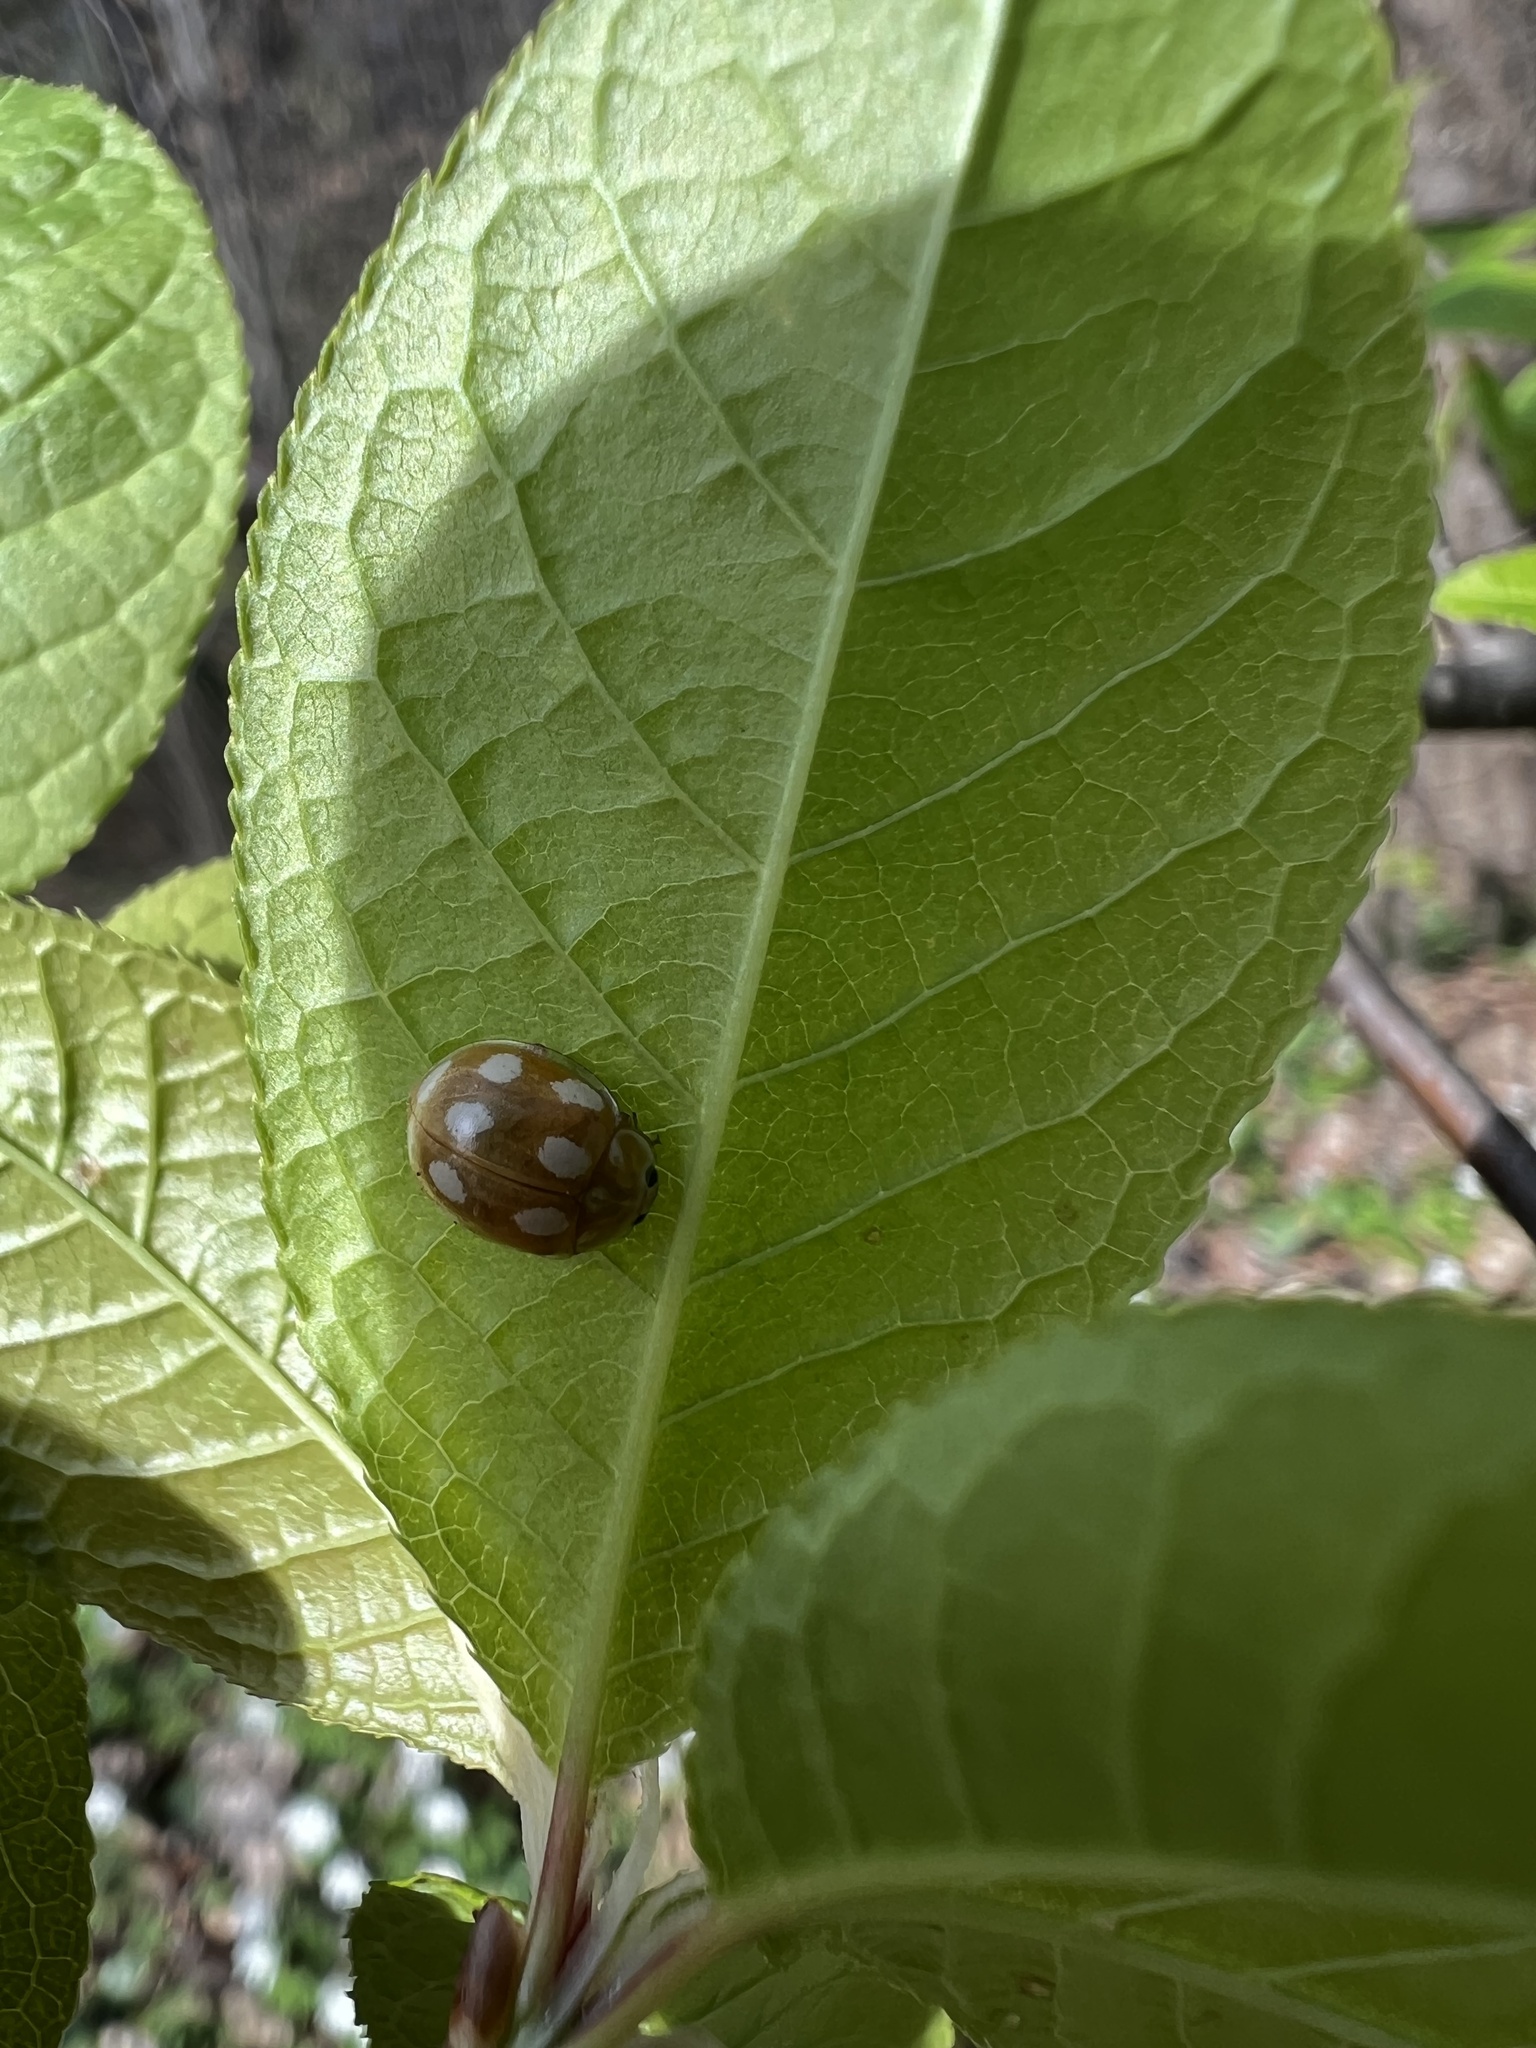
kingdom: Animalia
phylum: Arthropoda
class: Insecta
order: Coleoptera
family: Coccinellidae
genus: Calvia
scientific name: Calvia decemguttata
